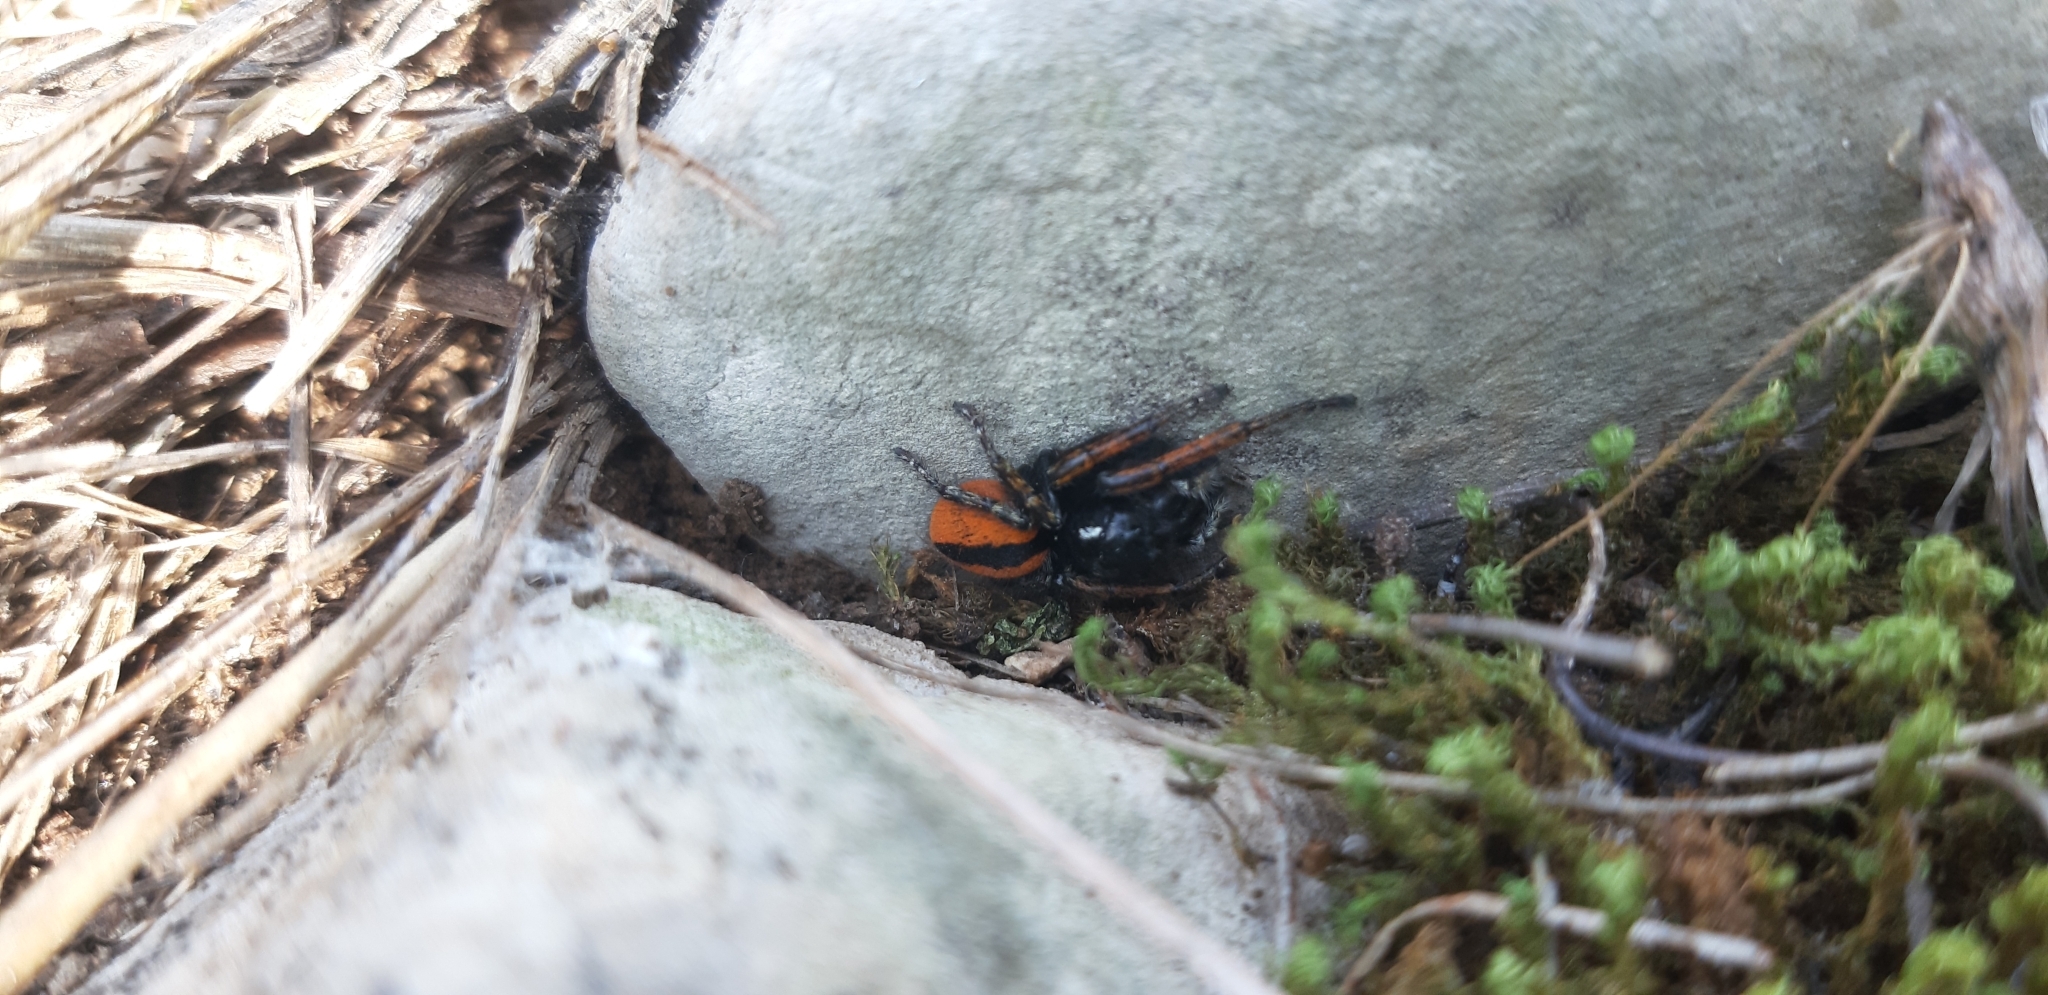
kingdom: Animalia
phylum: Arthropoda
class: Arachnida
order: Araneae
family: Salticidae
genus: Philaeus
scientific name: Philaeus chrysops
